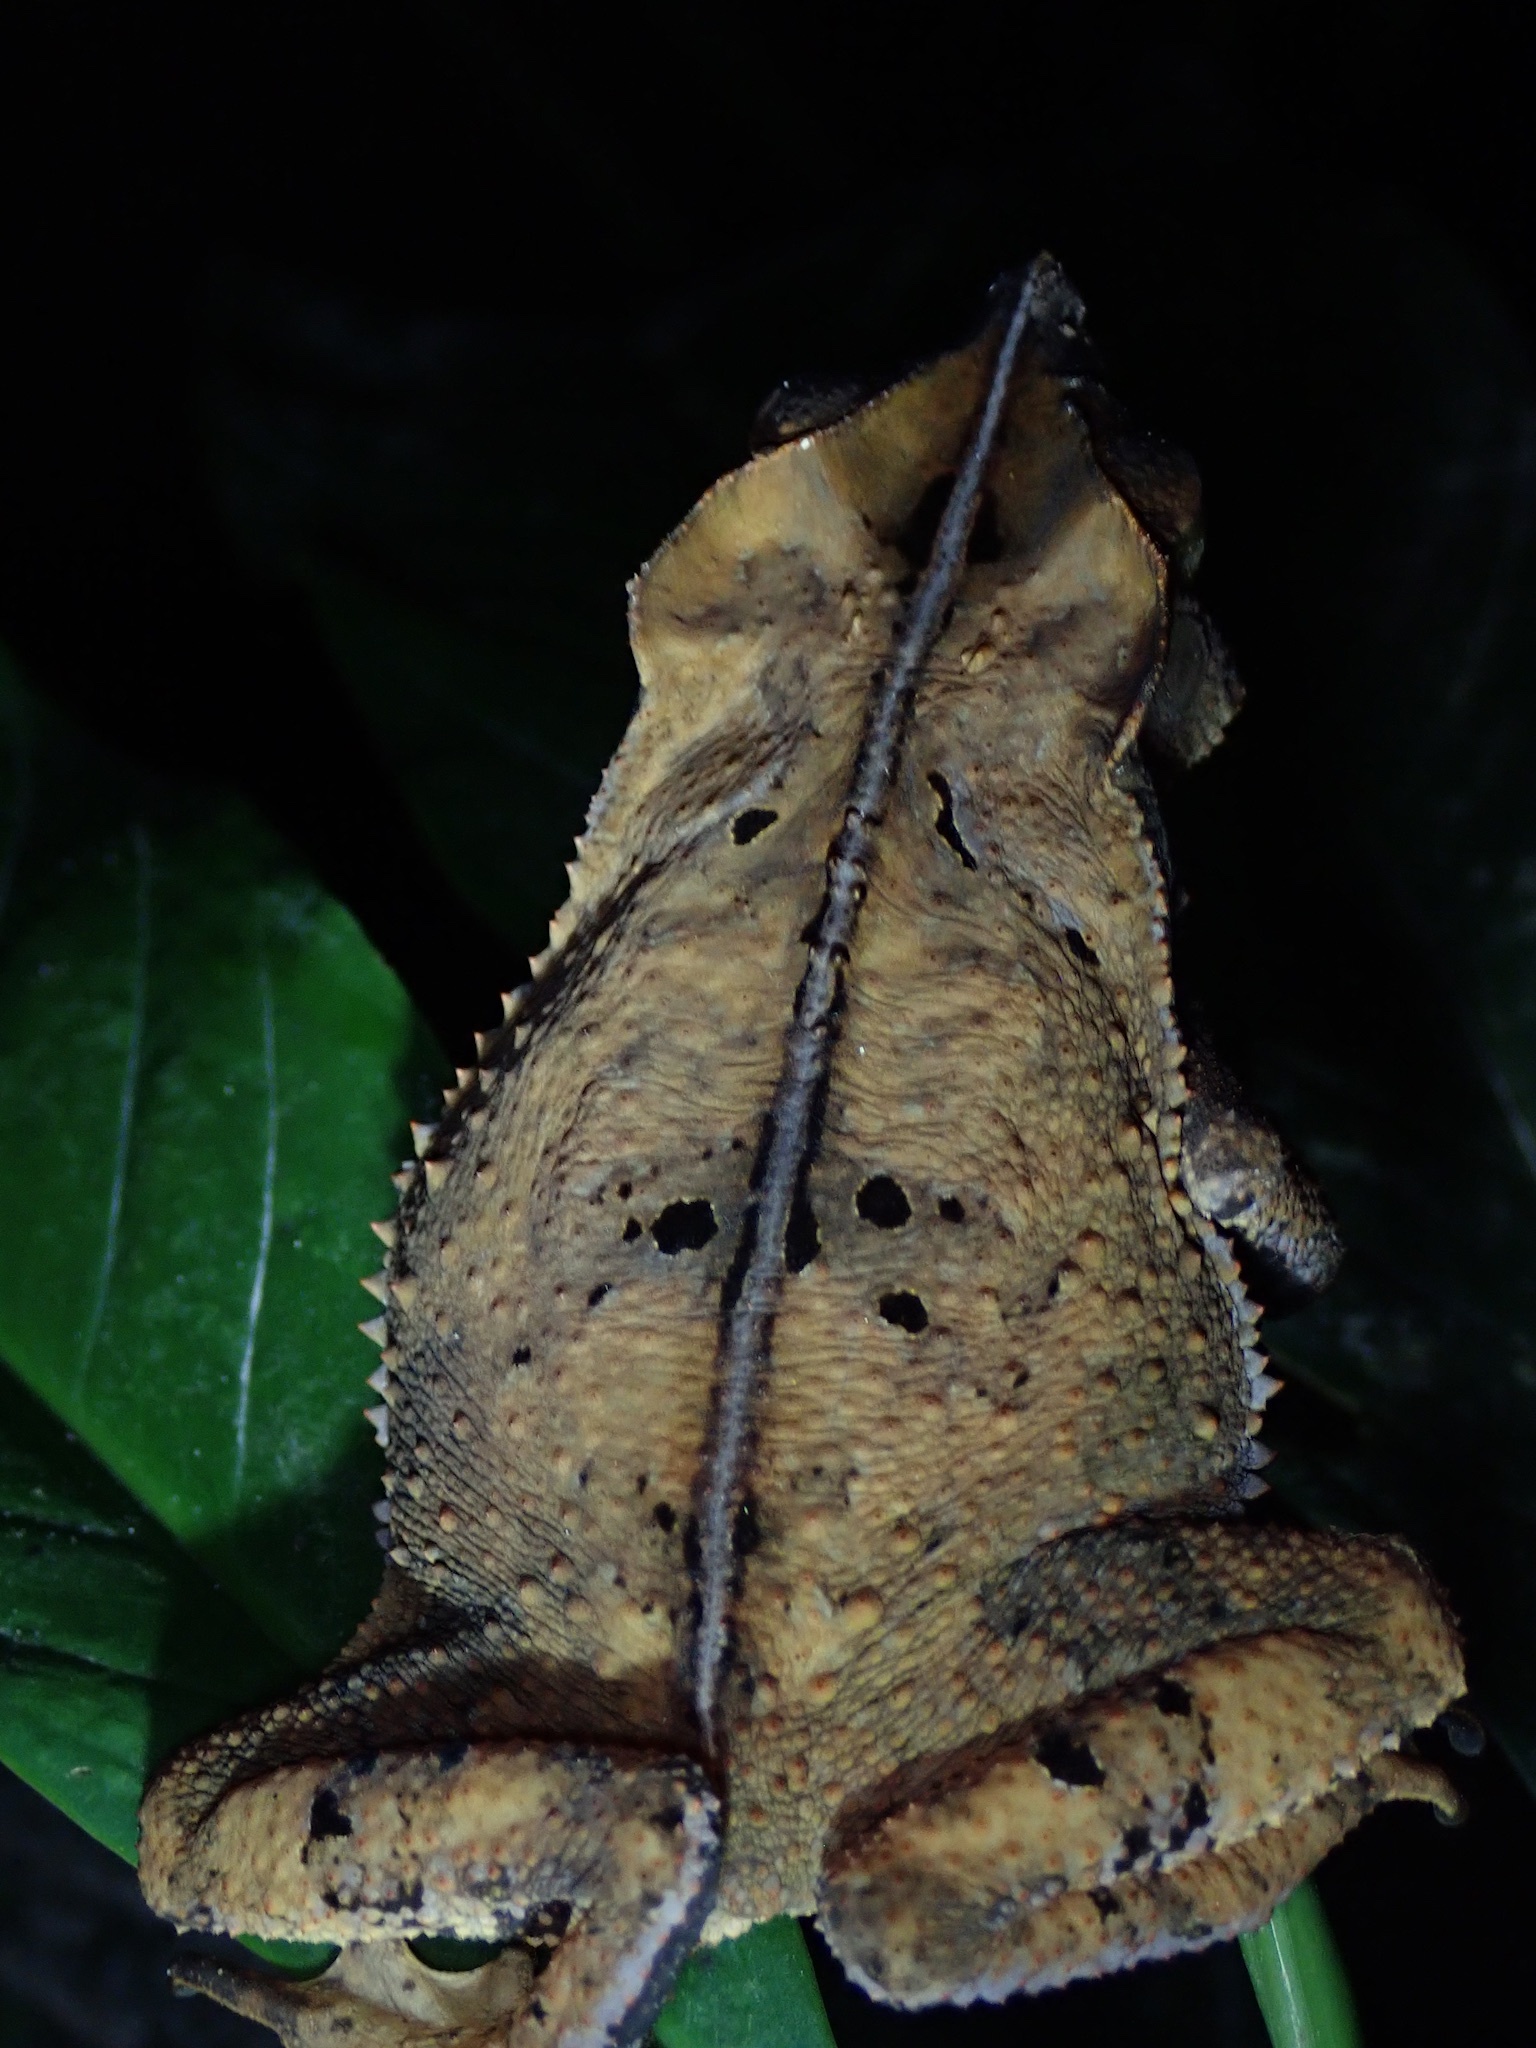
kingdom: Animalia
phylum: Chordata
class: Amphibia
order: Anura
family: Bufonidae
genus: Rhinella
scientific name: Rhinella margaritifera
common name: Mitred toad
